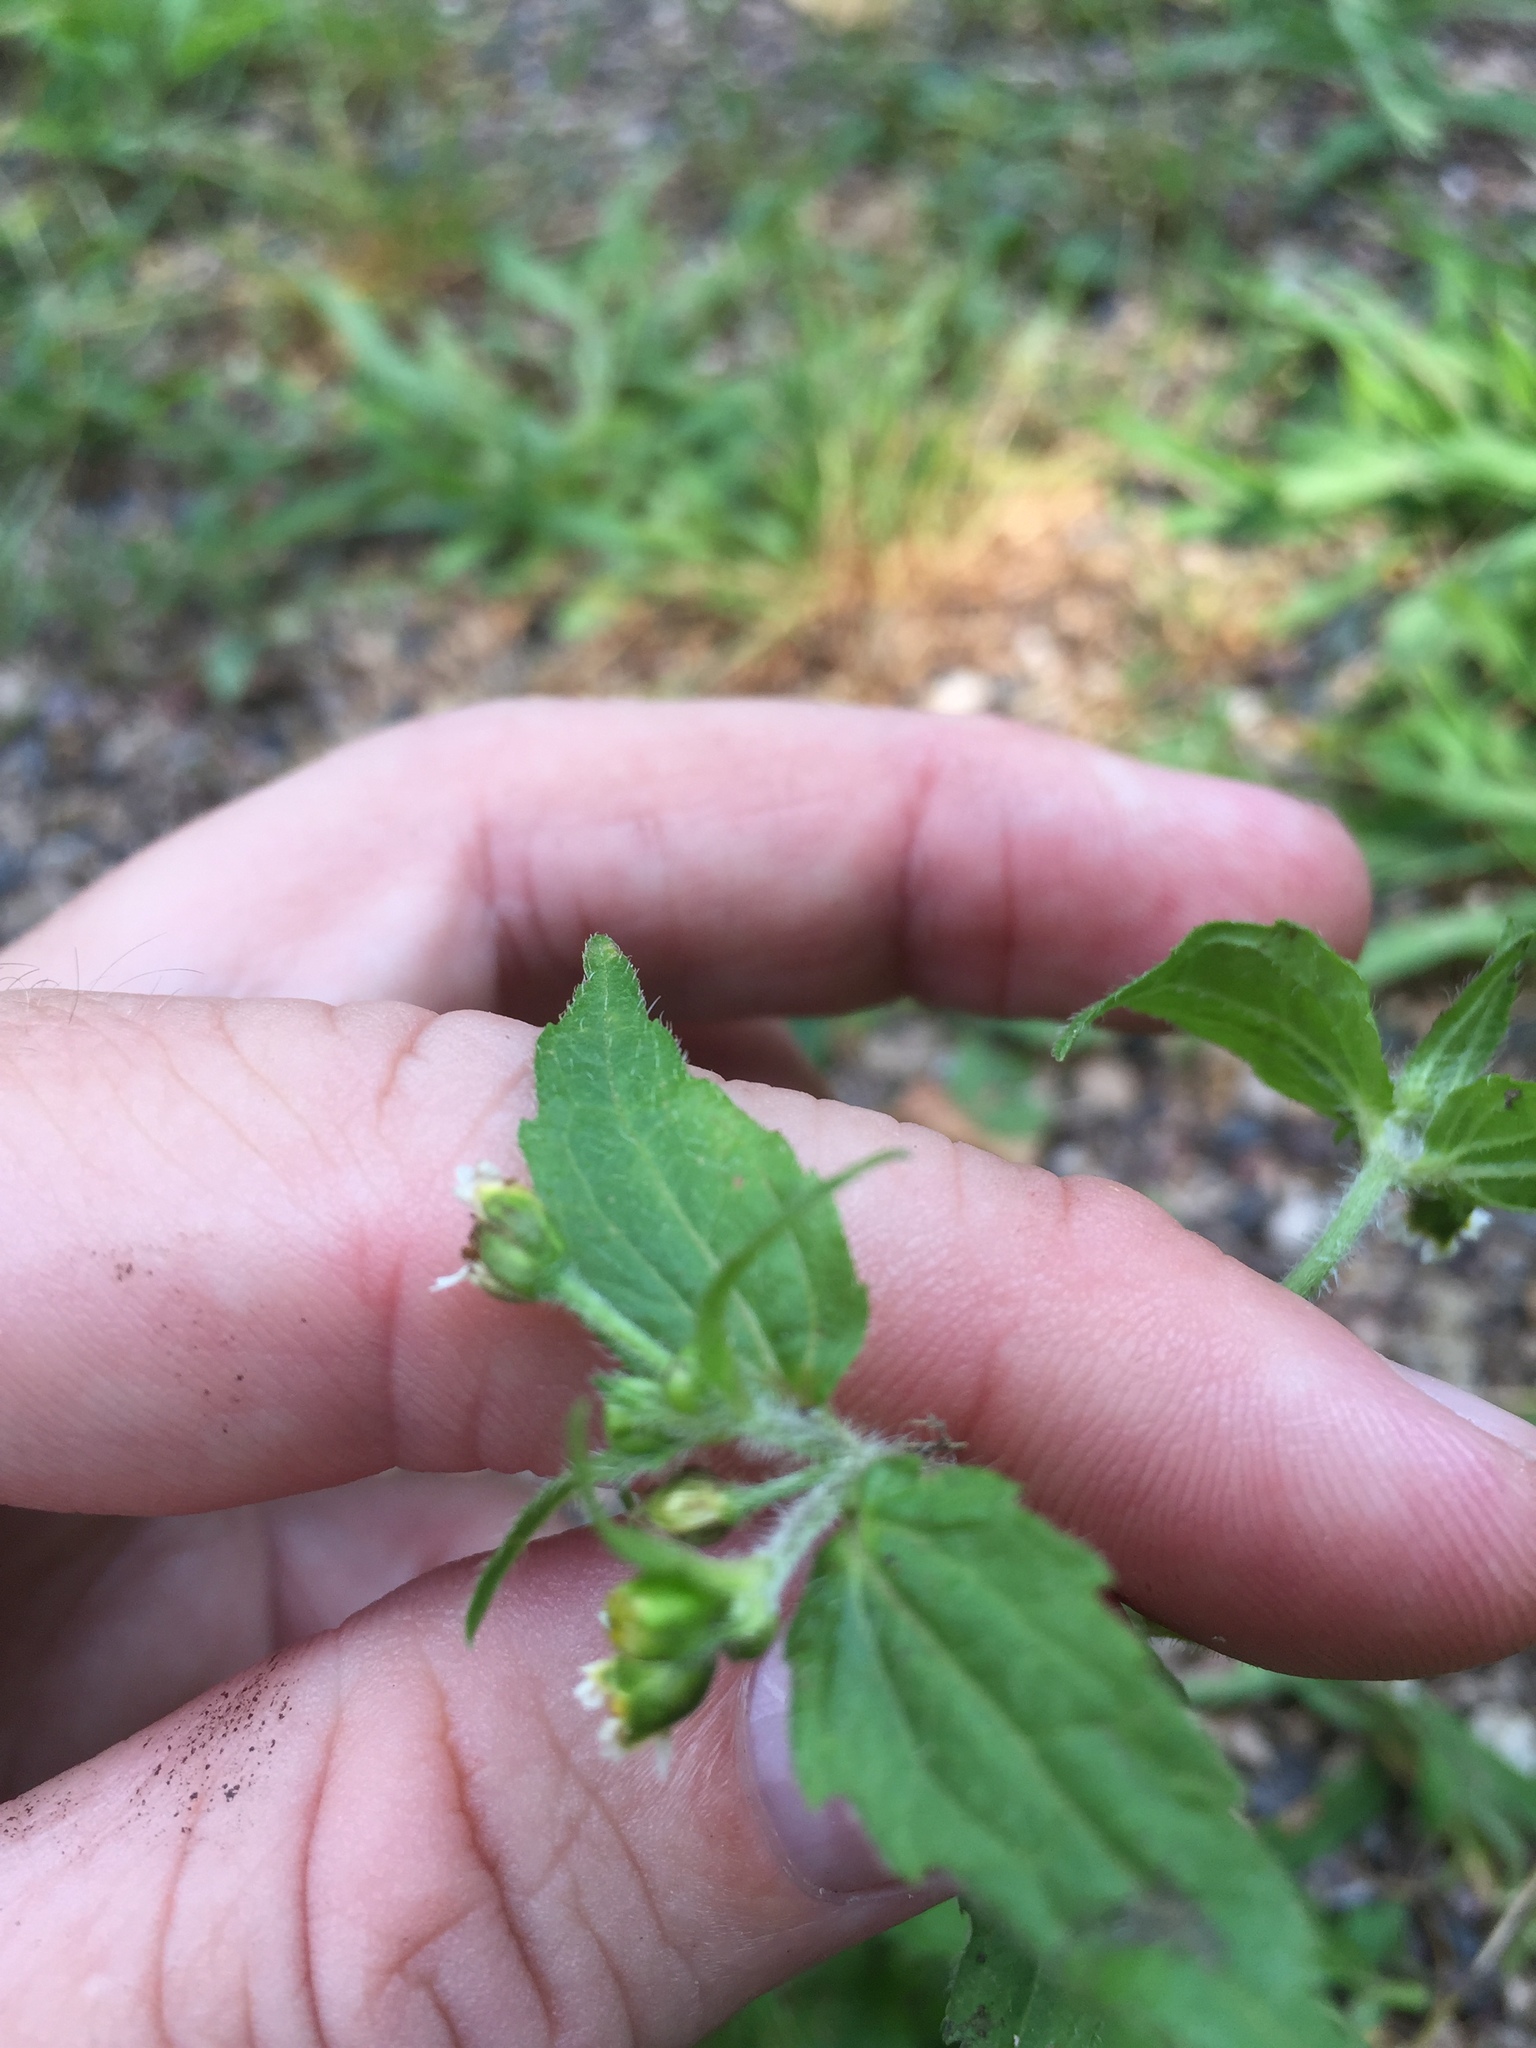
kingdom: Plantae
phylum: Tracheophyta
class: Magnoliopsida
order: Asterales
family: Asteraceae
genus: Galinsoga
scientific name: Galinsoga quadriradiata
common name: Shaggy soldier
